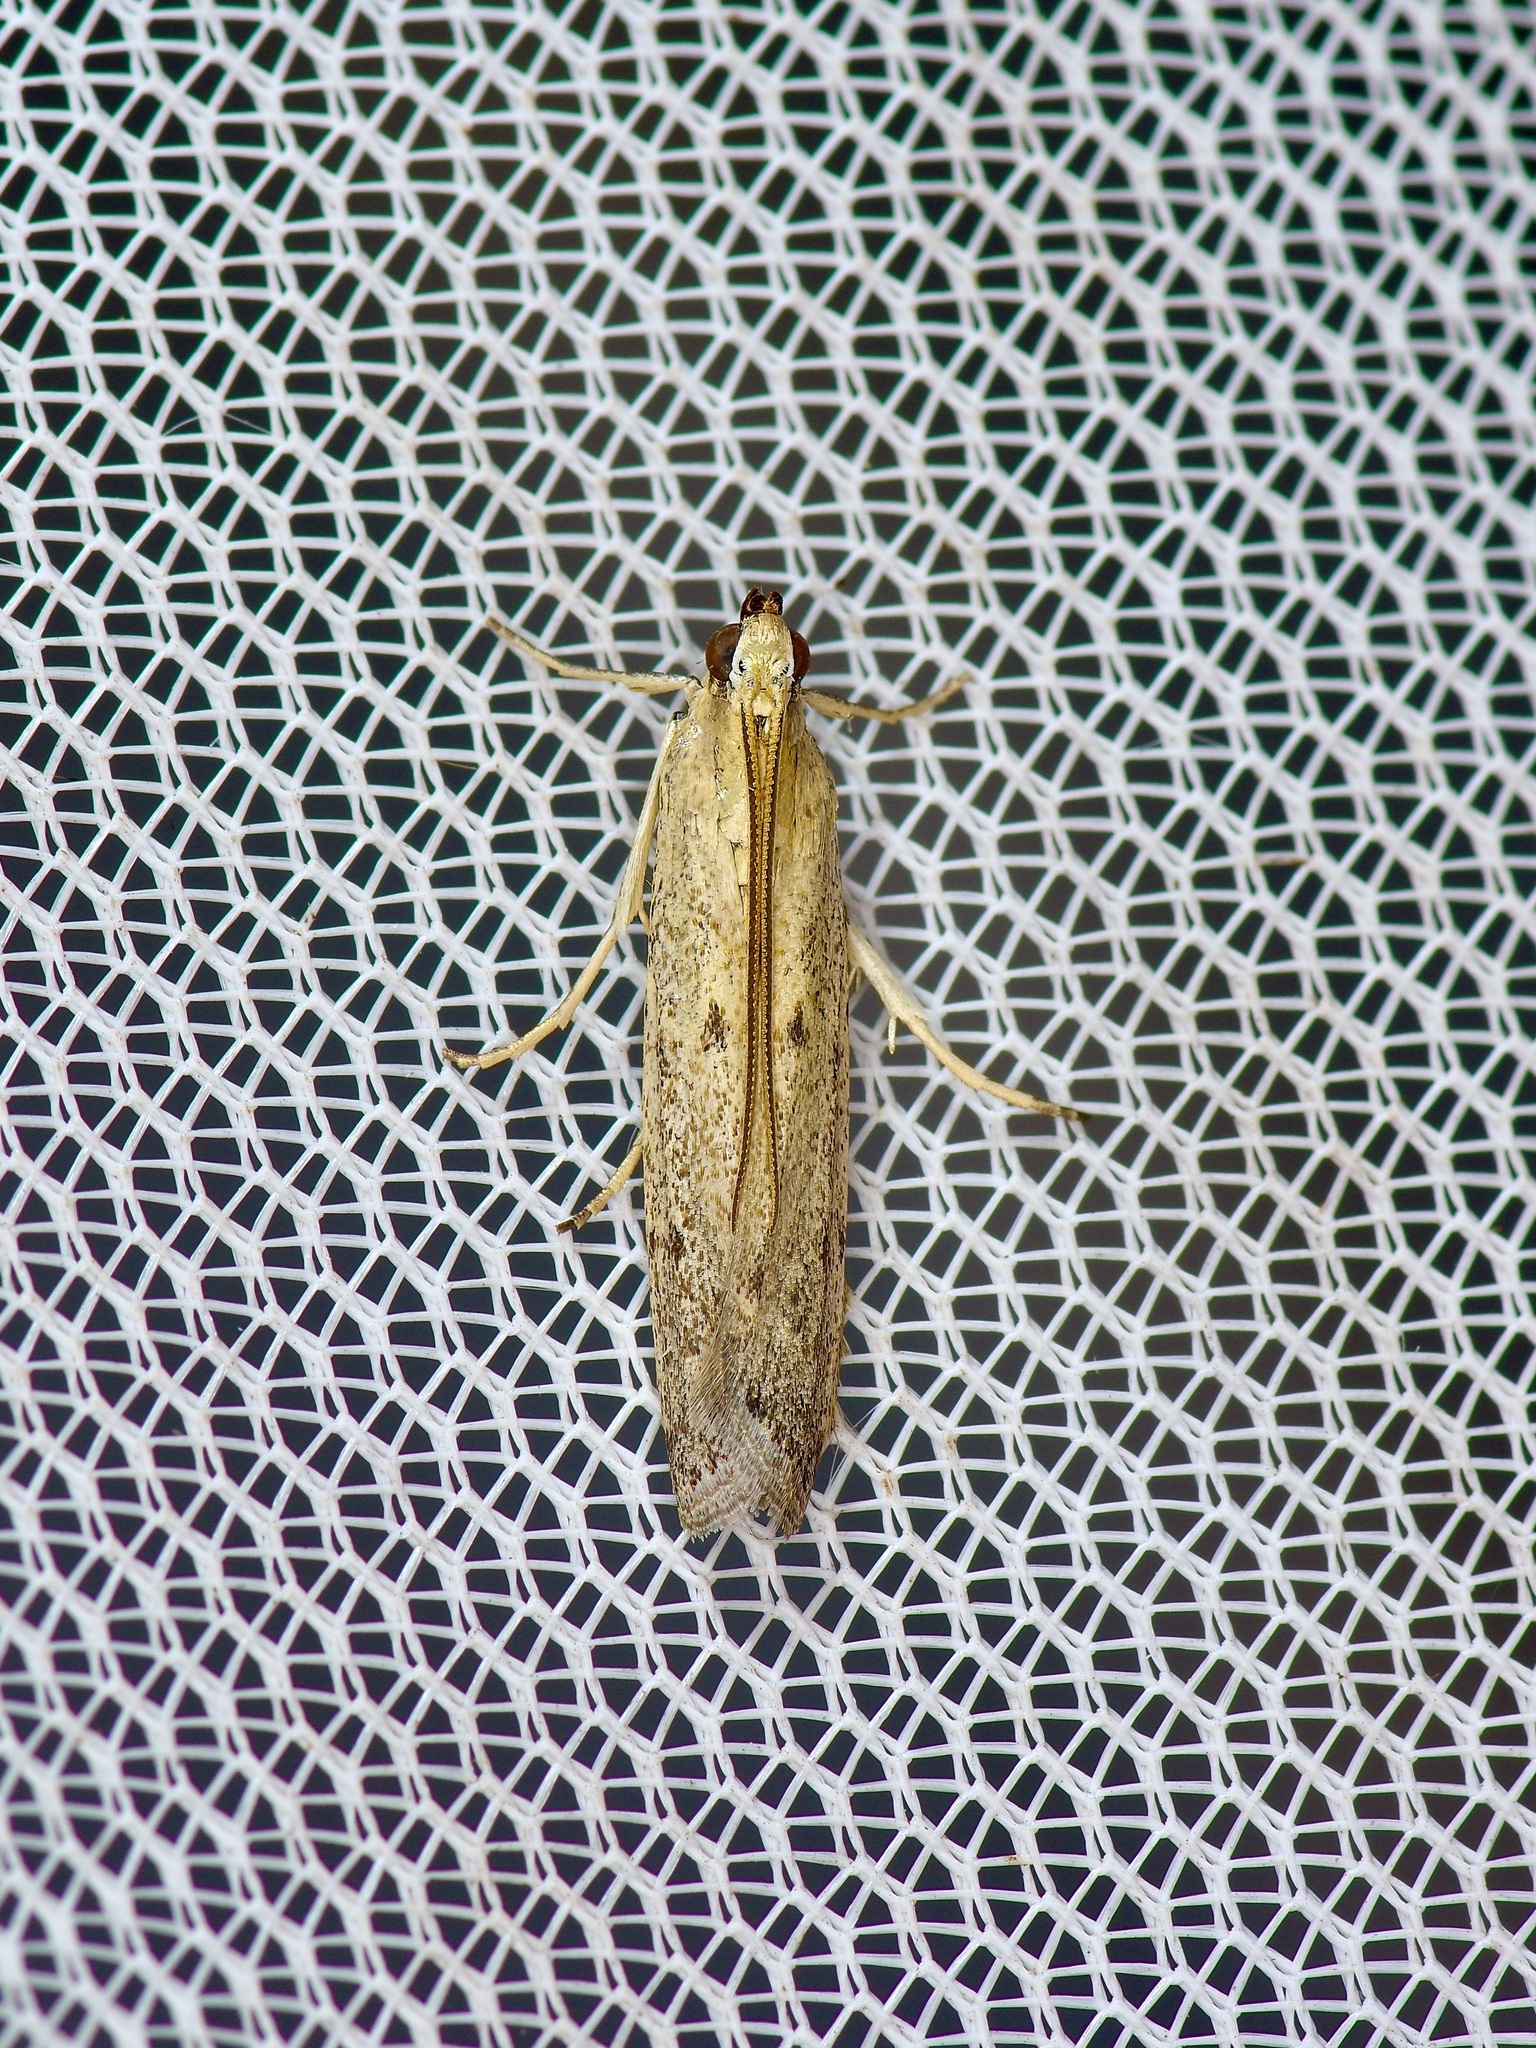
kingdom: Animalia
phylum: Arthropoda
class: Insecta
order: Lepidoptera
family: Pyralidae
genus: Homoeosoma
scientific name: Homoeosoma electella
